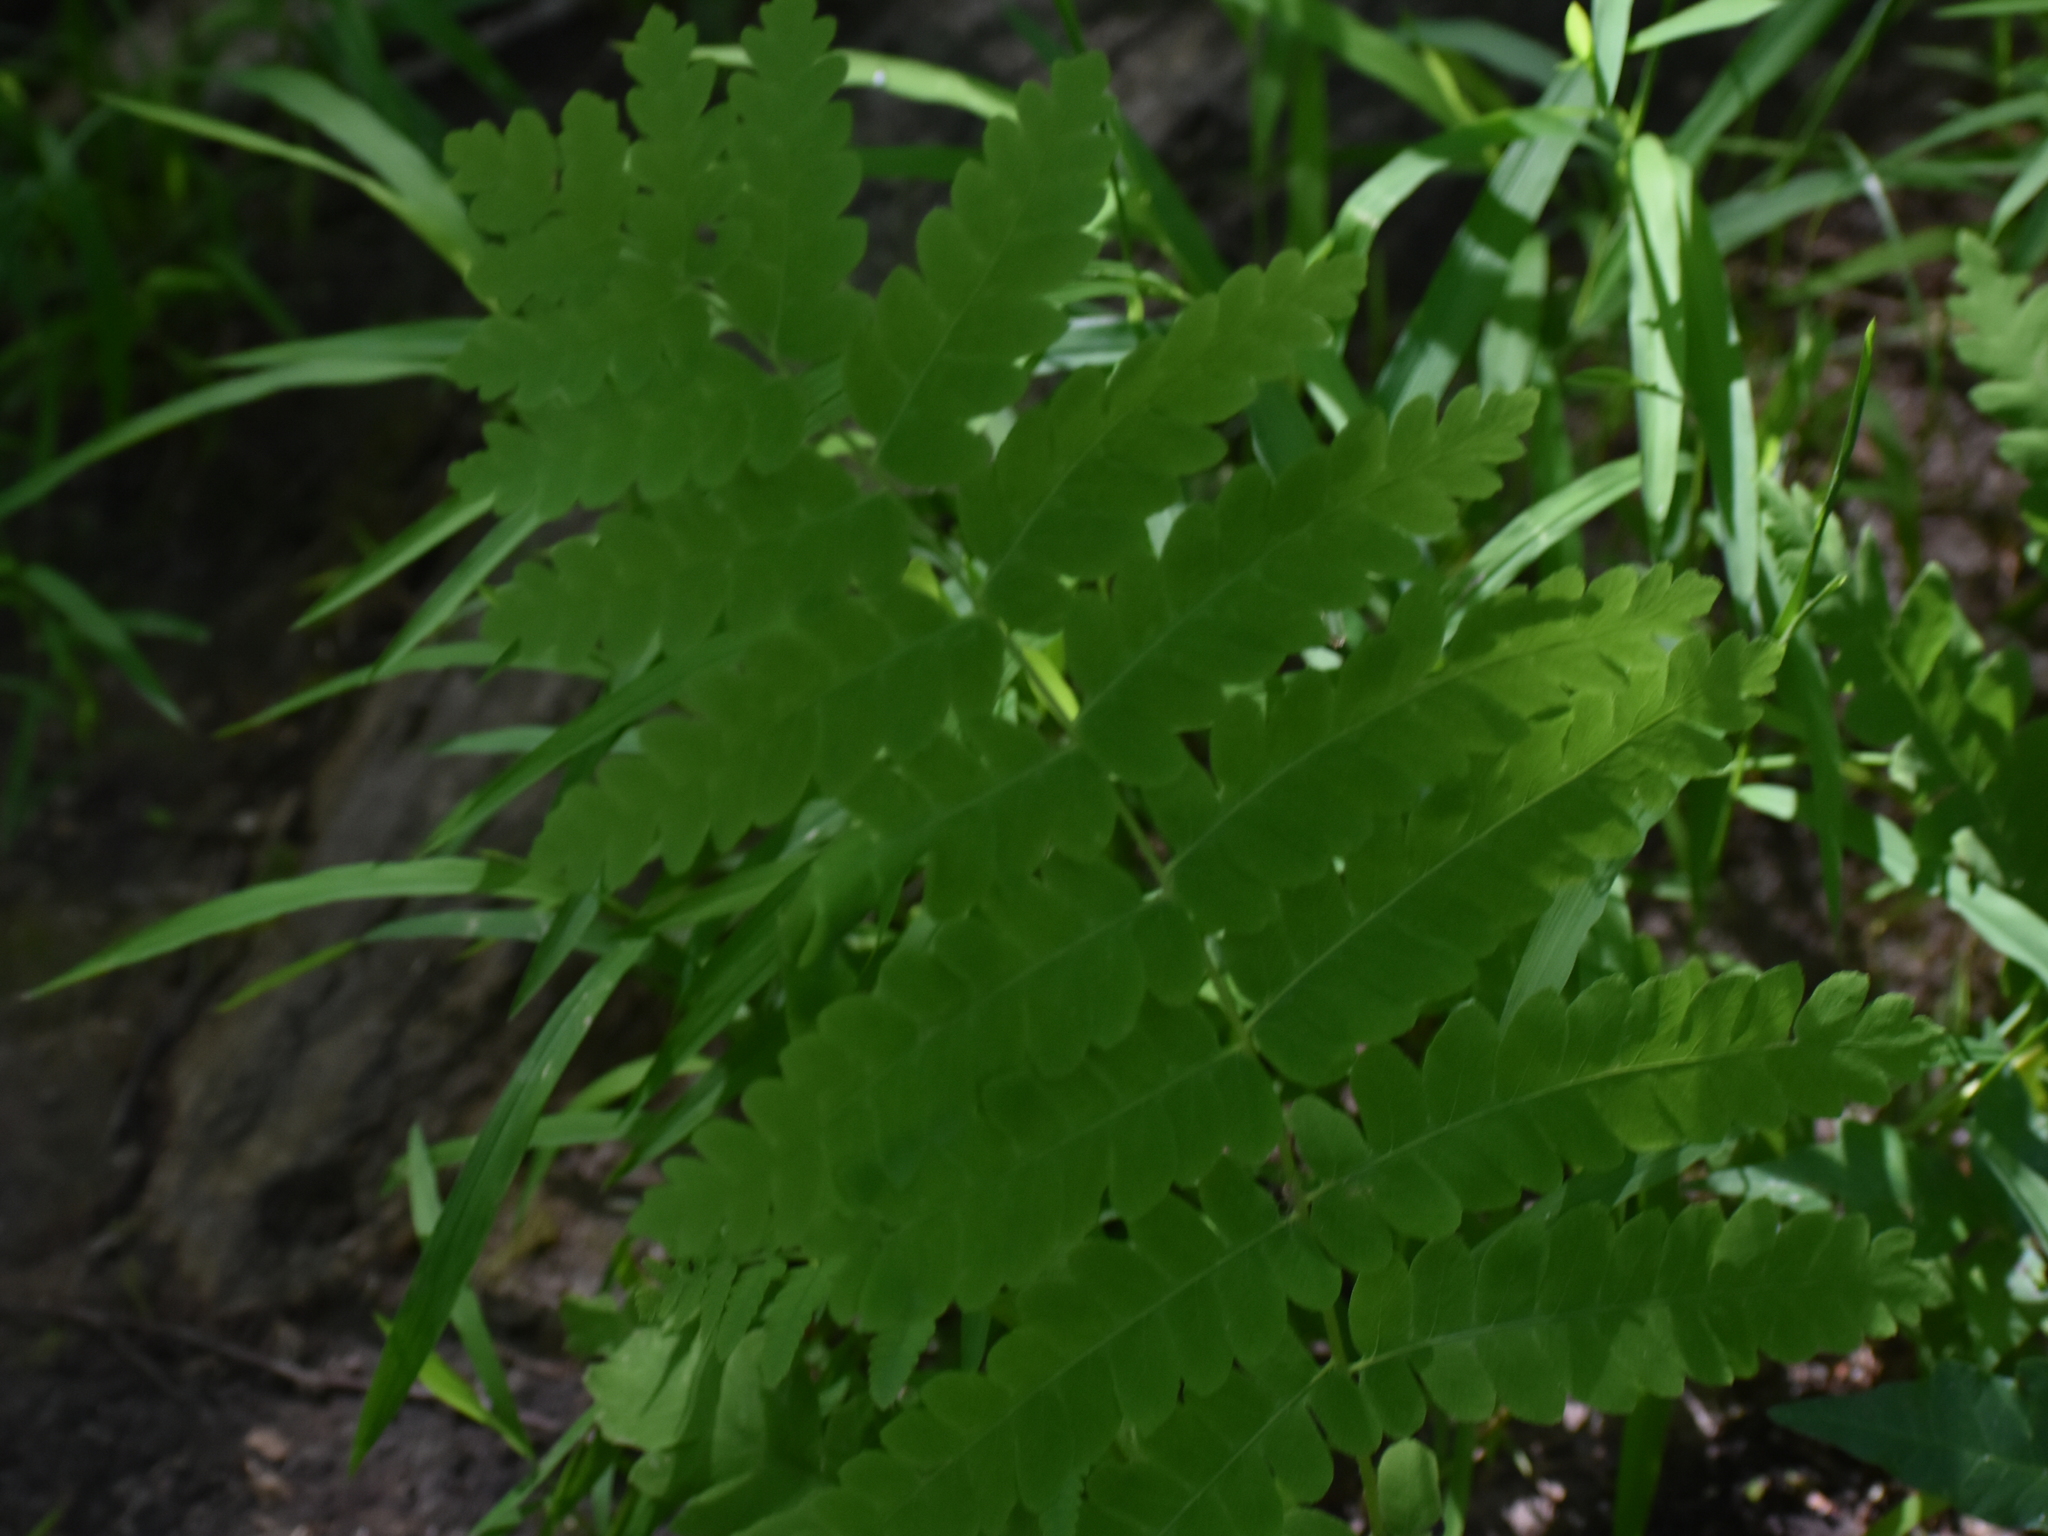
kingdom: Plantae
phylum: Tracheophyta
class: Polypodiopsida
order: Osmundales
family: Osmundaceae
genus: Claytosmunda
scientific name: Claytosmunda claytoniana
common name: Clayton's fern
